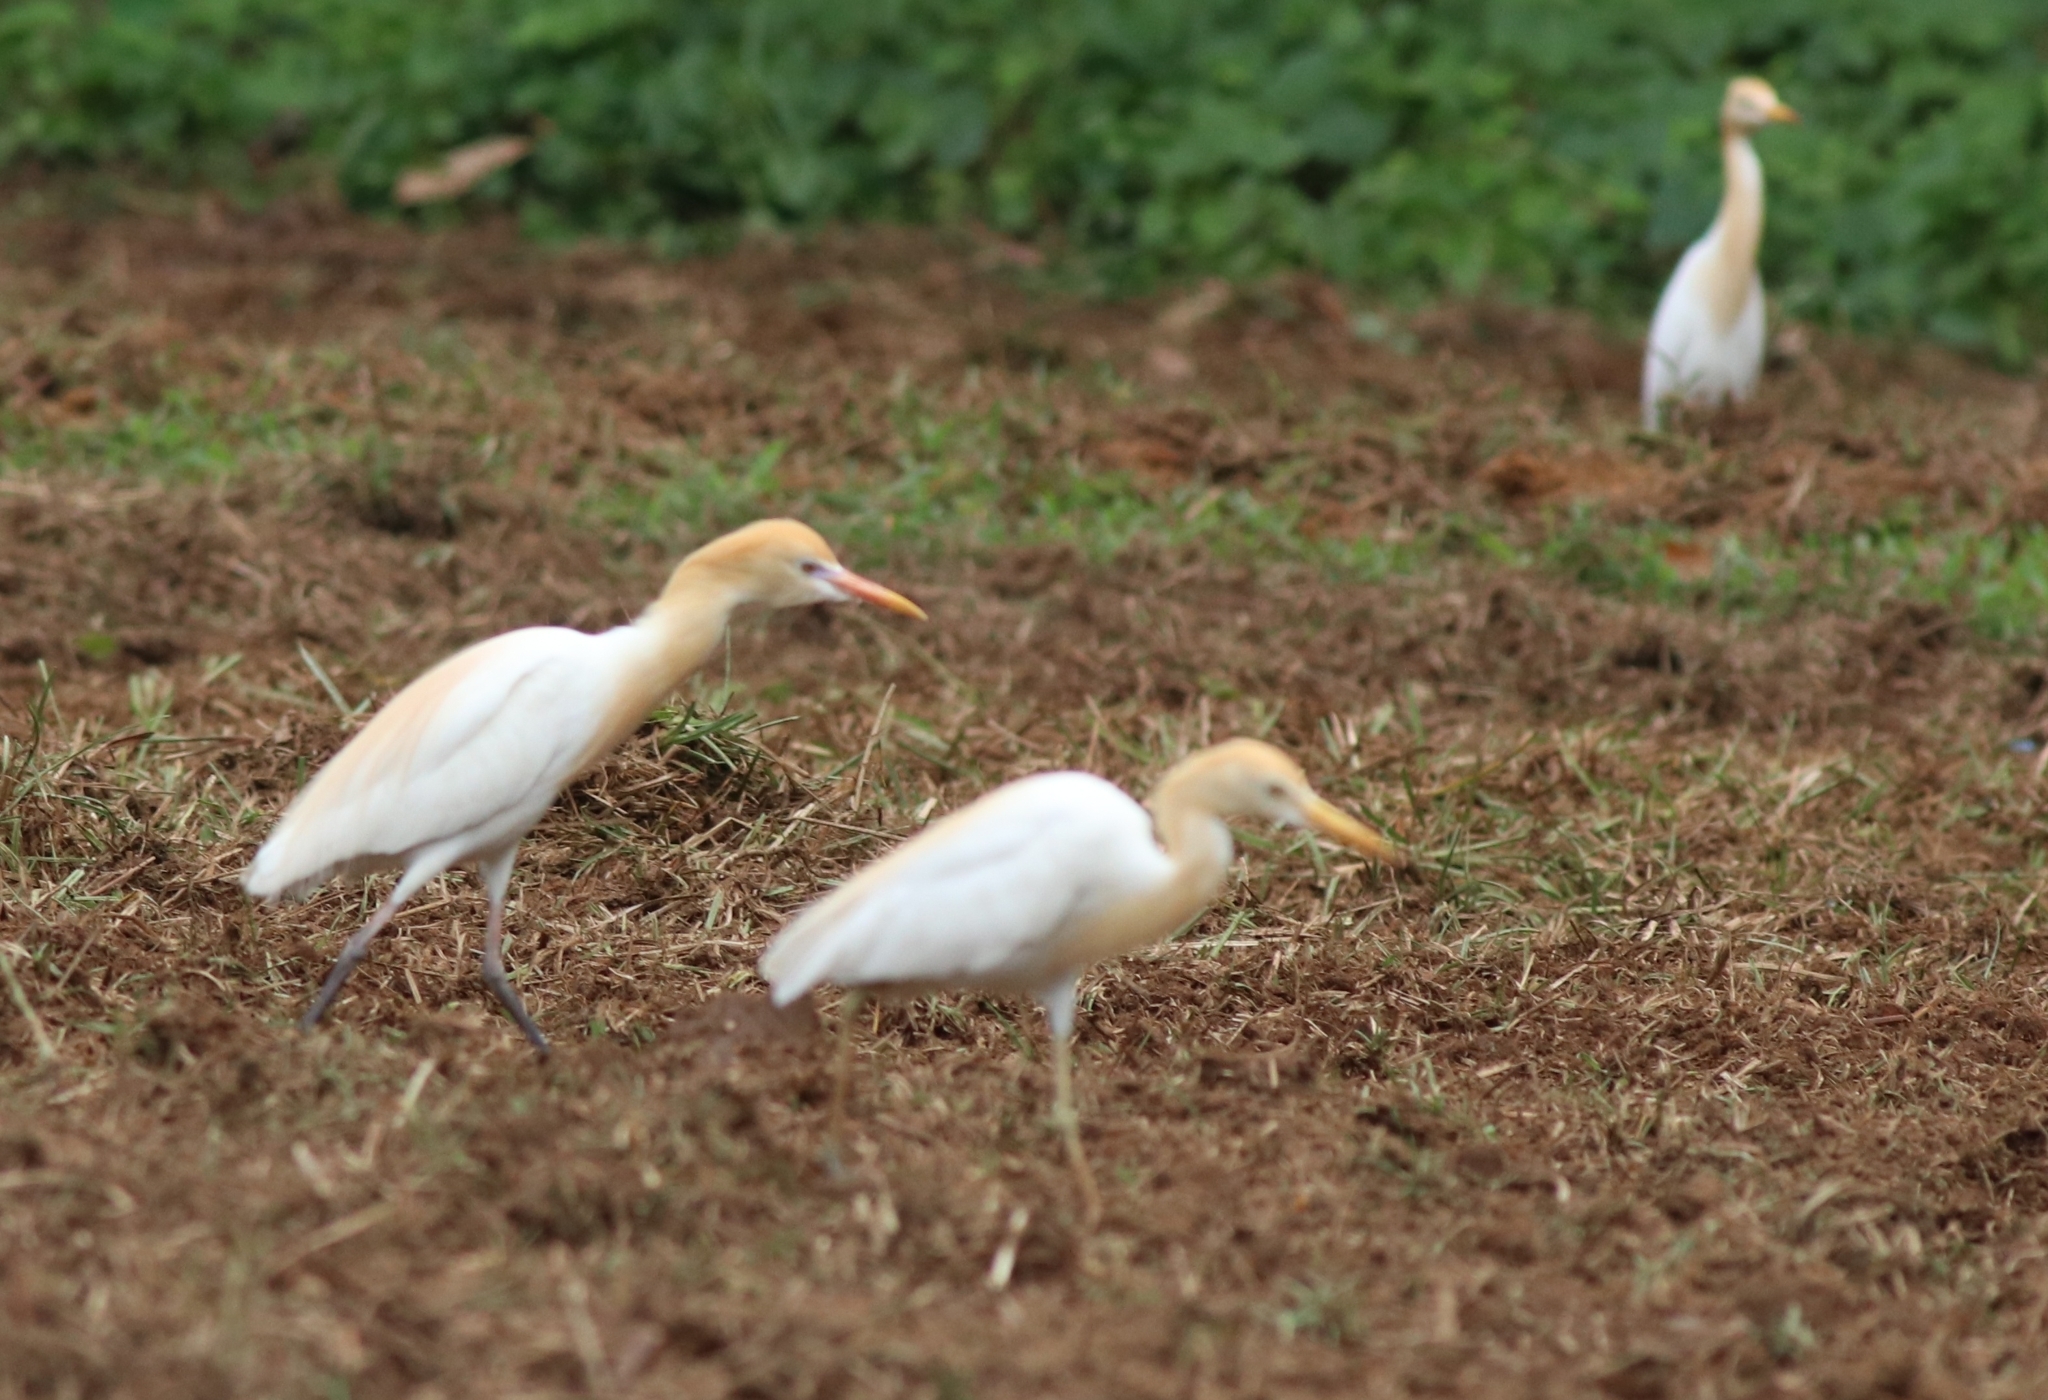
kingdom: Animalia
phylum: Chordata
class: Aves
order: Pelecaniformes
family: Ardeidae
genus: Bubulcus
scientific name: Bubulcus coromandus
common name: Eastern cattle egret
